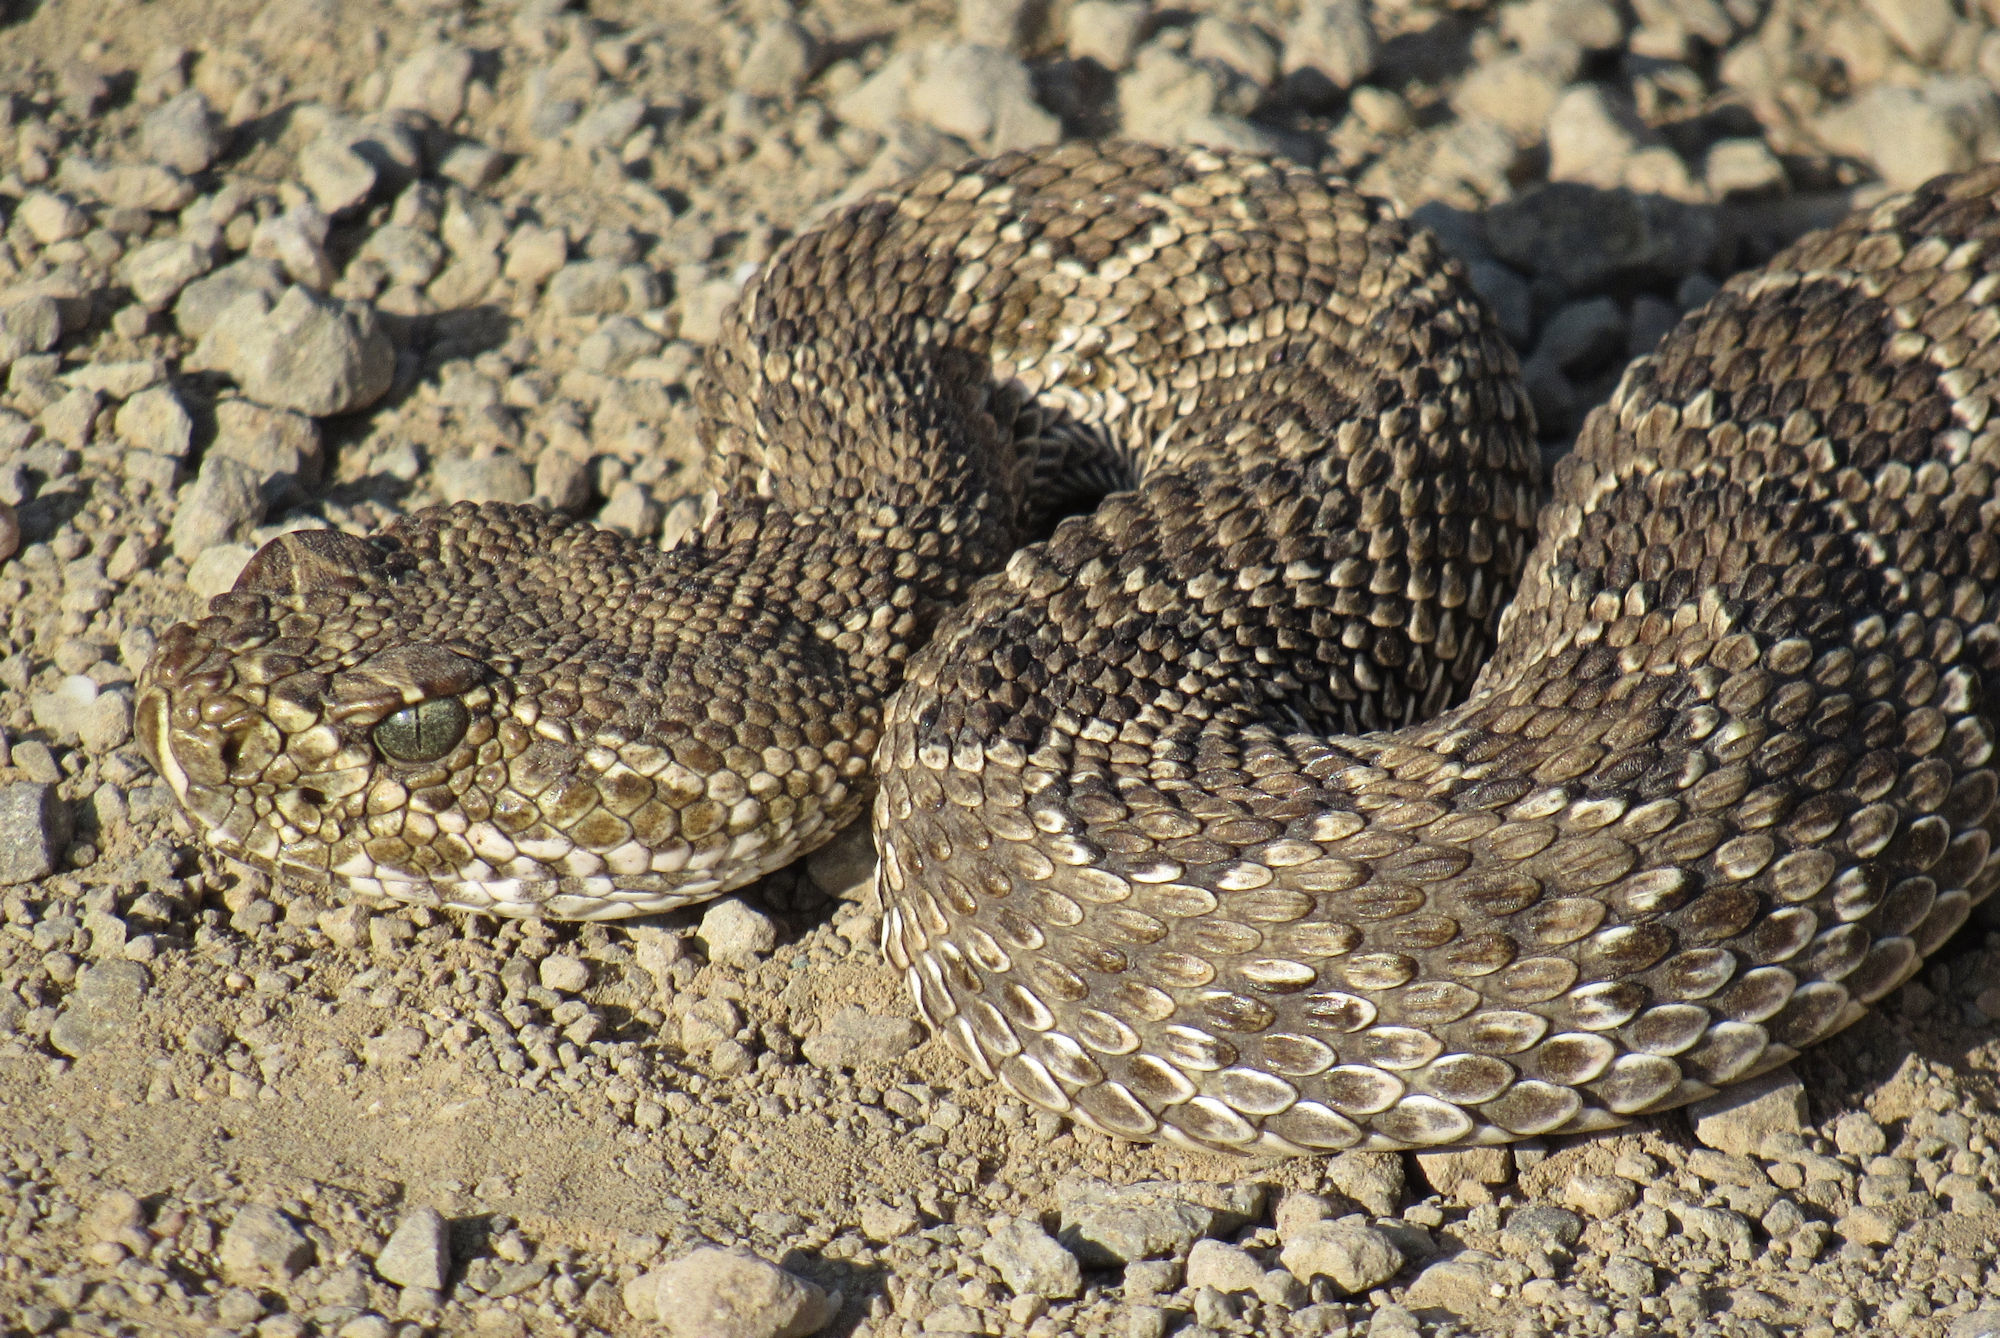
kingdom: Animalia
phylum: Chordata
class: Squamata
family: Viperidae
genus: Crotalus
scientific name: Crotalus viridis
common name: Prairie rattlesnake
